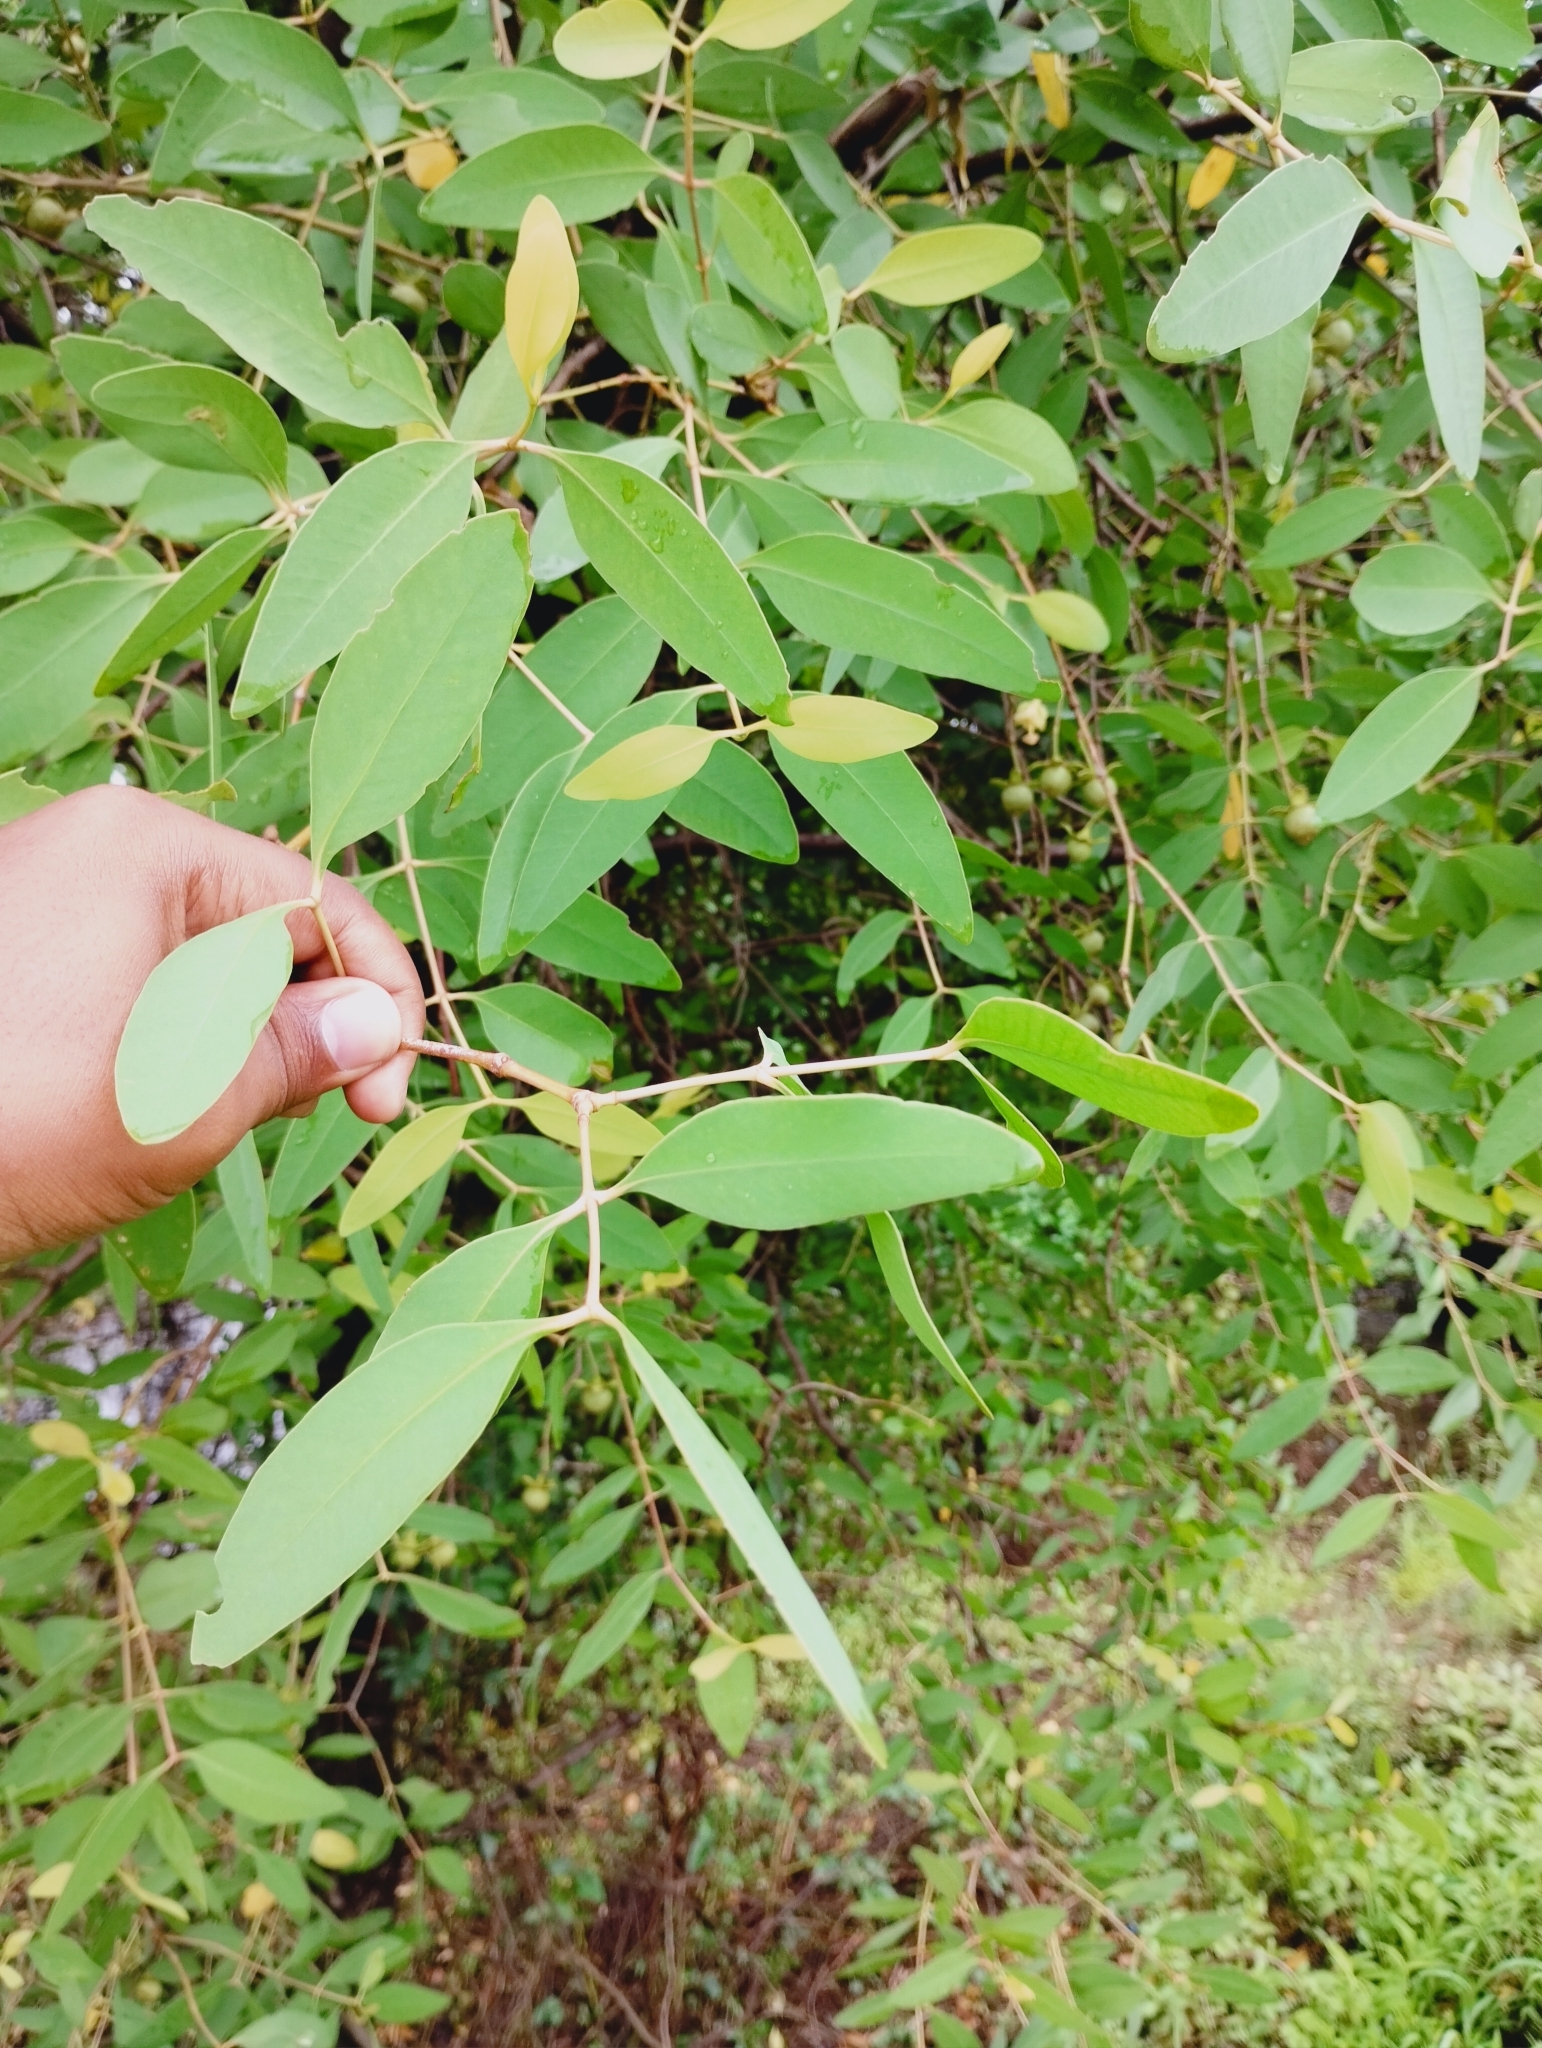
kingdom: Plantae
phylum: Tracheophyta
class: Magnoliopsida
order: Myrtales
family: Lythraceae
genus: Sonneratia
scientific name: Sonneratia apetala
